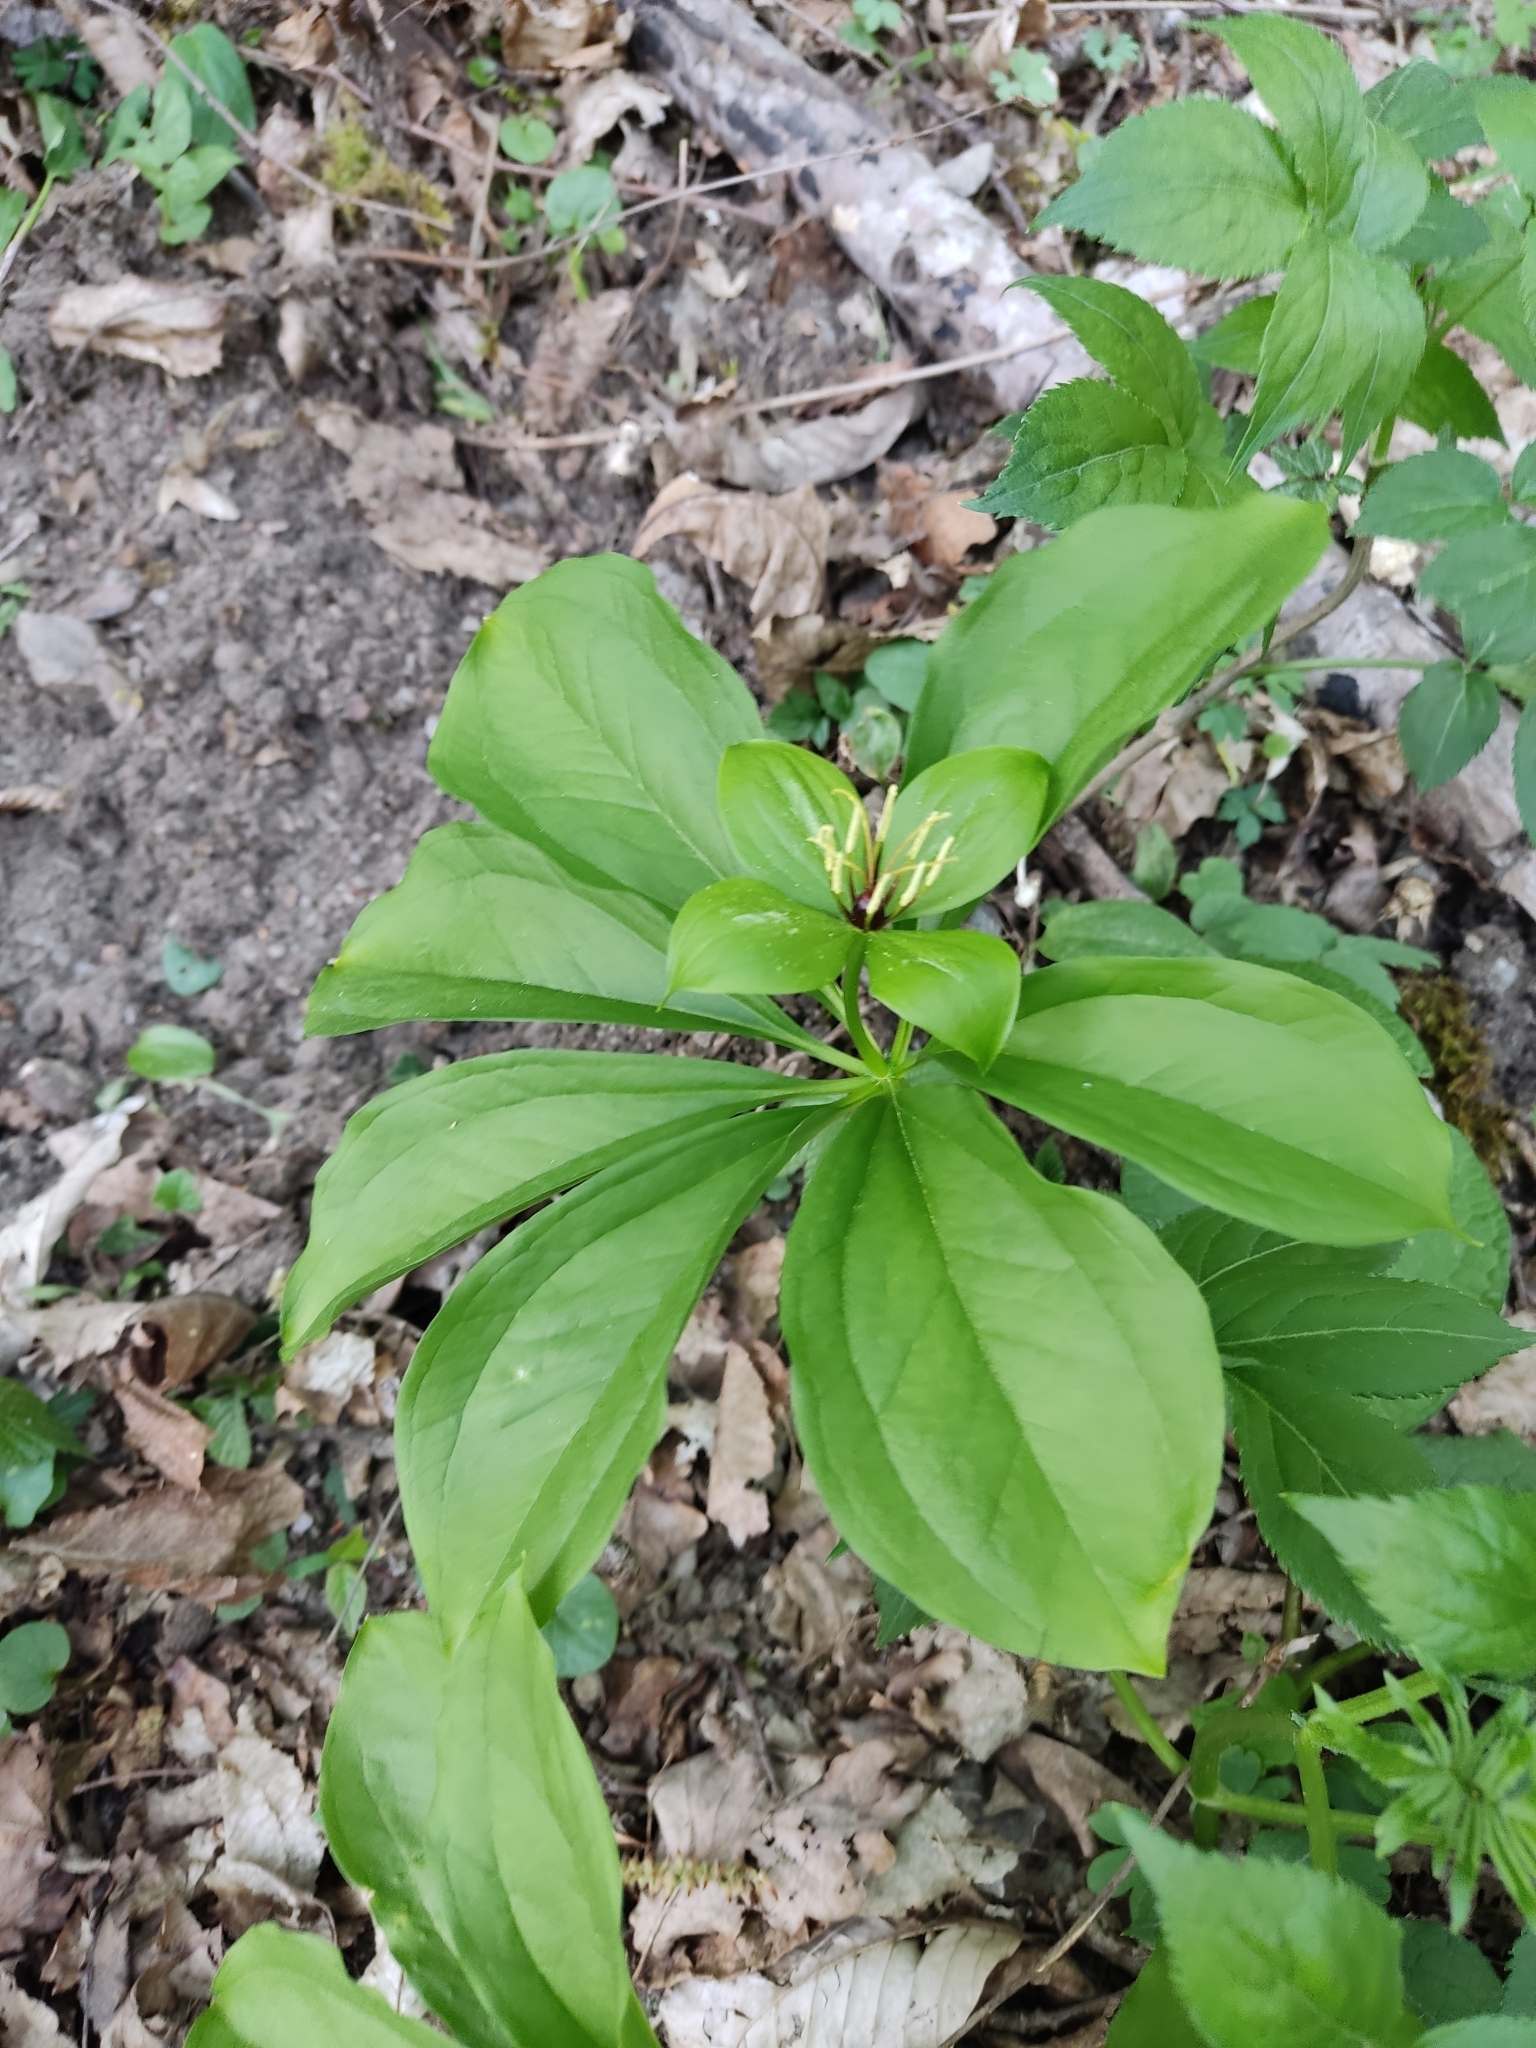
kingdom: Plantae
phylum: Tracheophyta
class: Liliopsida
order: Liliales
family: Melanthiaceae
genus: Paris
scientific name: Paris incompleta
